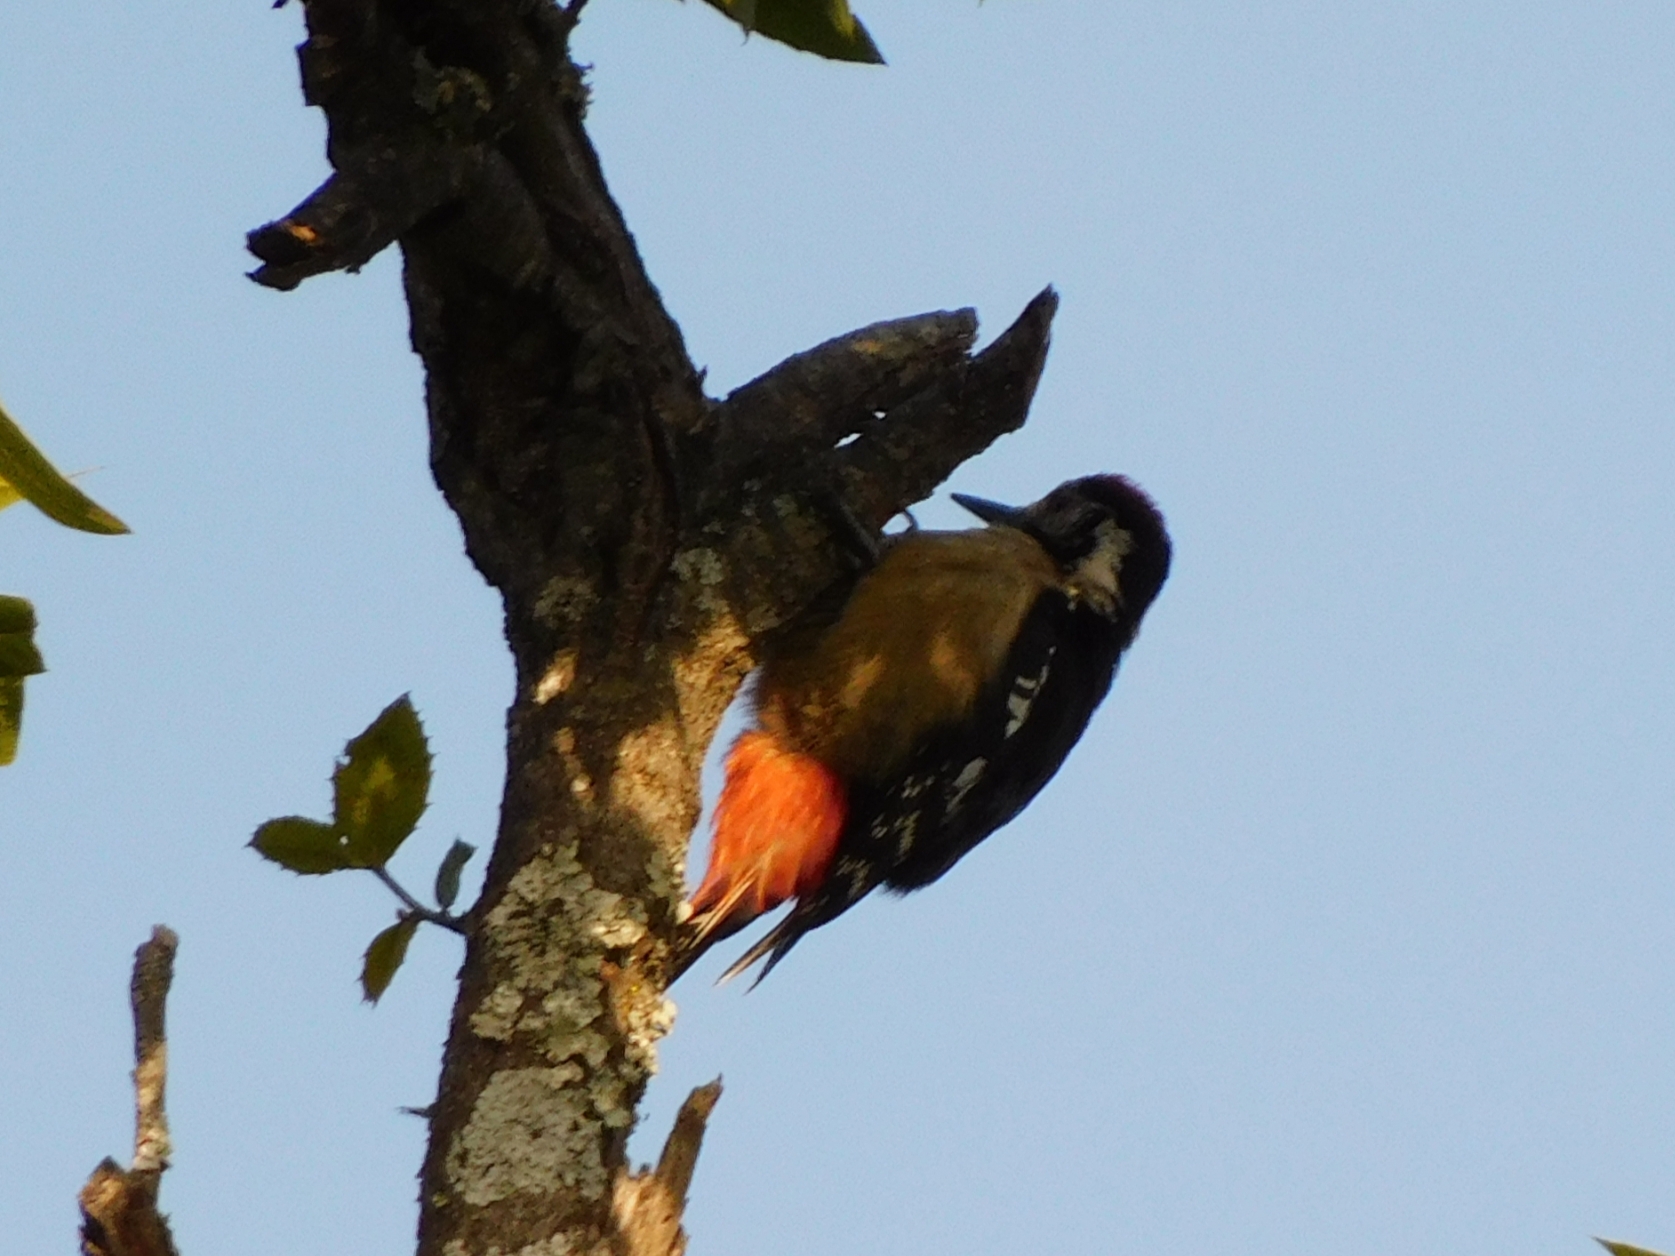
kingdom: Animalia
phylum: Chordata
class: Aves
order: Piciformes
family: Picidae
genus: Dendrocopos
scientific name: Dendrocopos himalayensis
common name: Himalayan woodpecker
